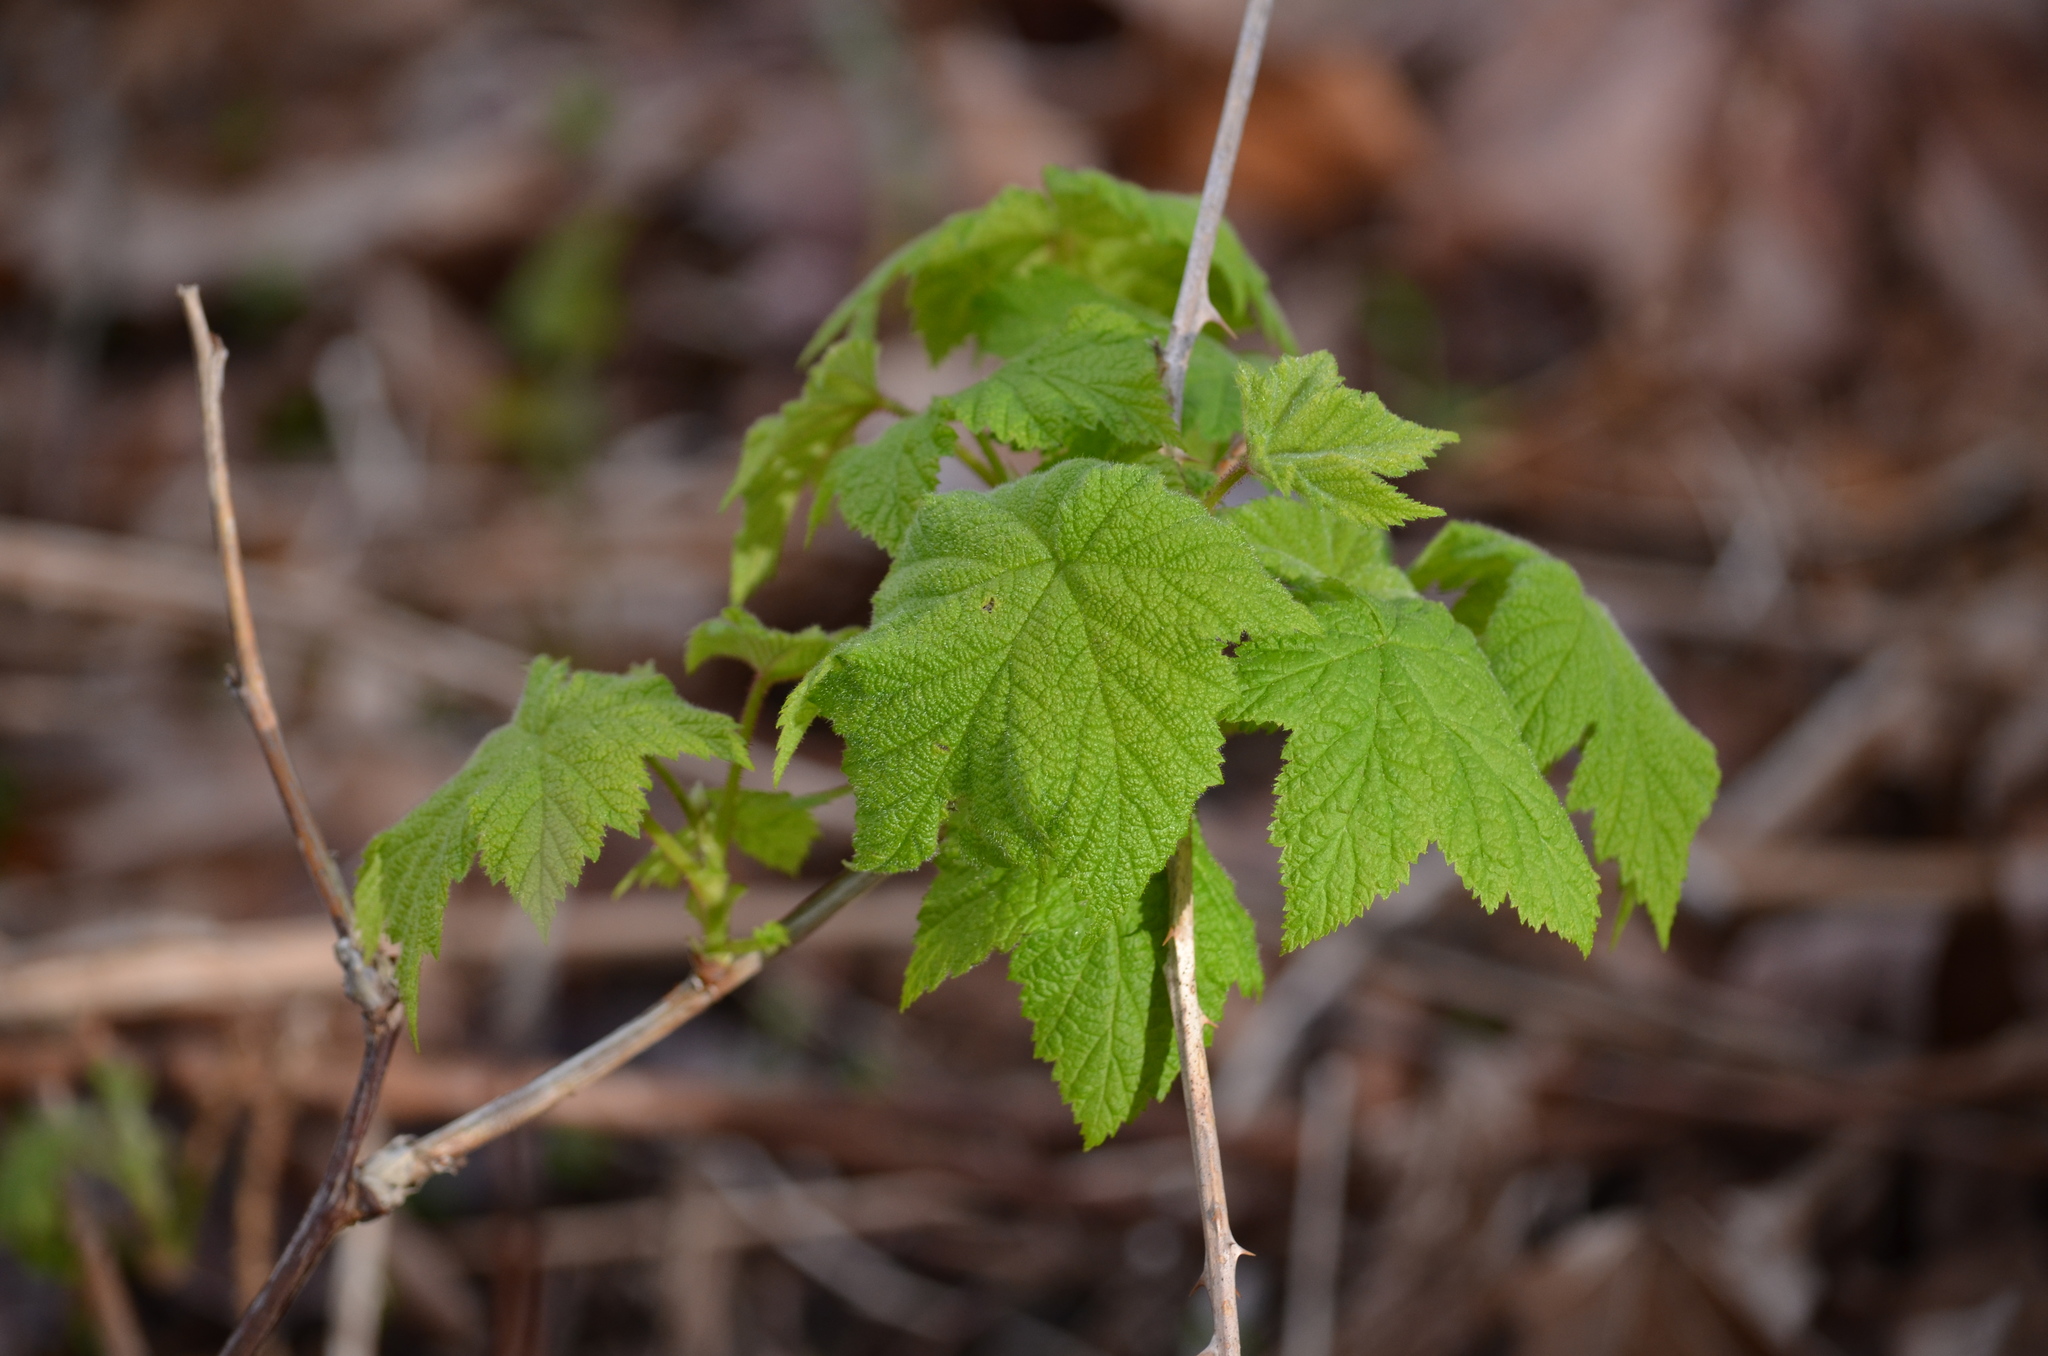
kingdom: Plantae
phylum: Tracheophyta
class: Magnoliopsida
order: Rosales
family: Rosaceae
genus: Rubus
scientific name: Rubus parviflorus
